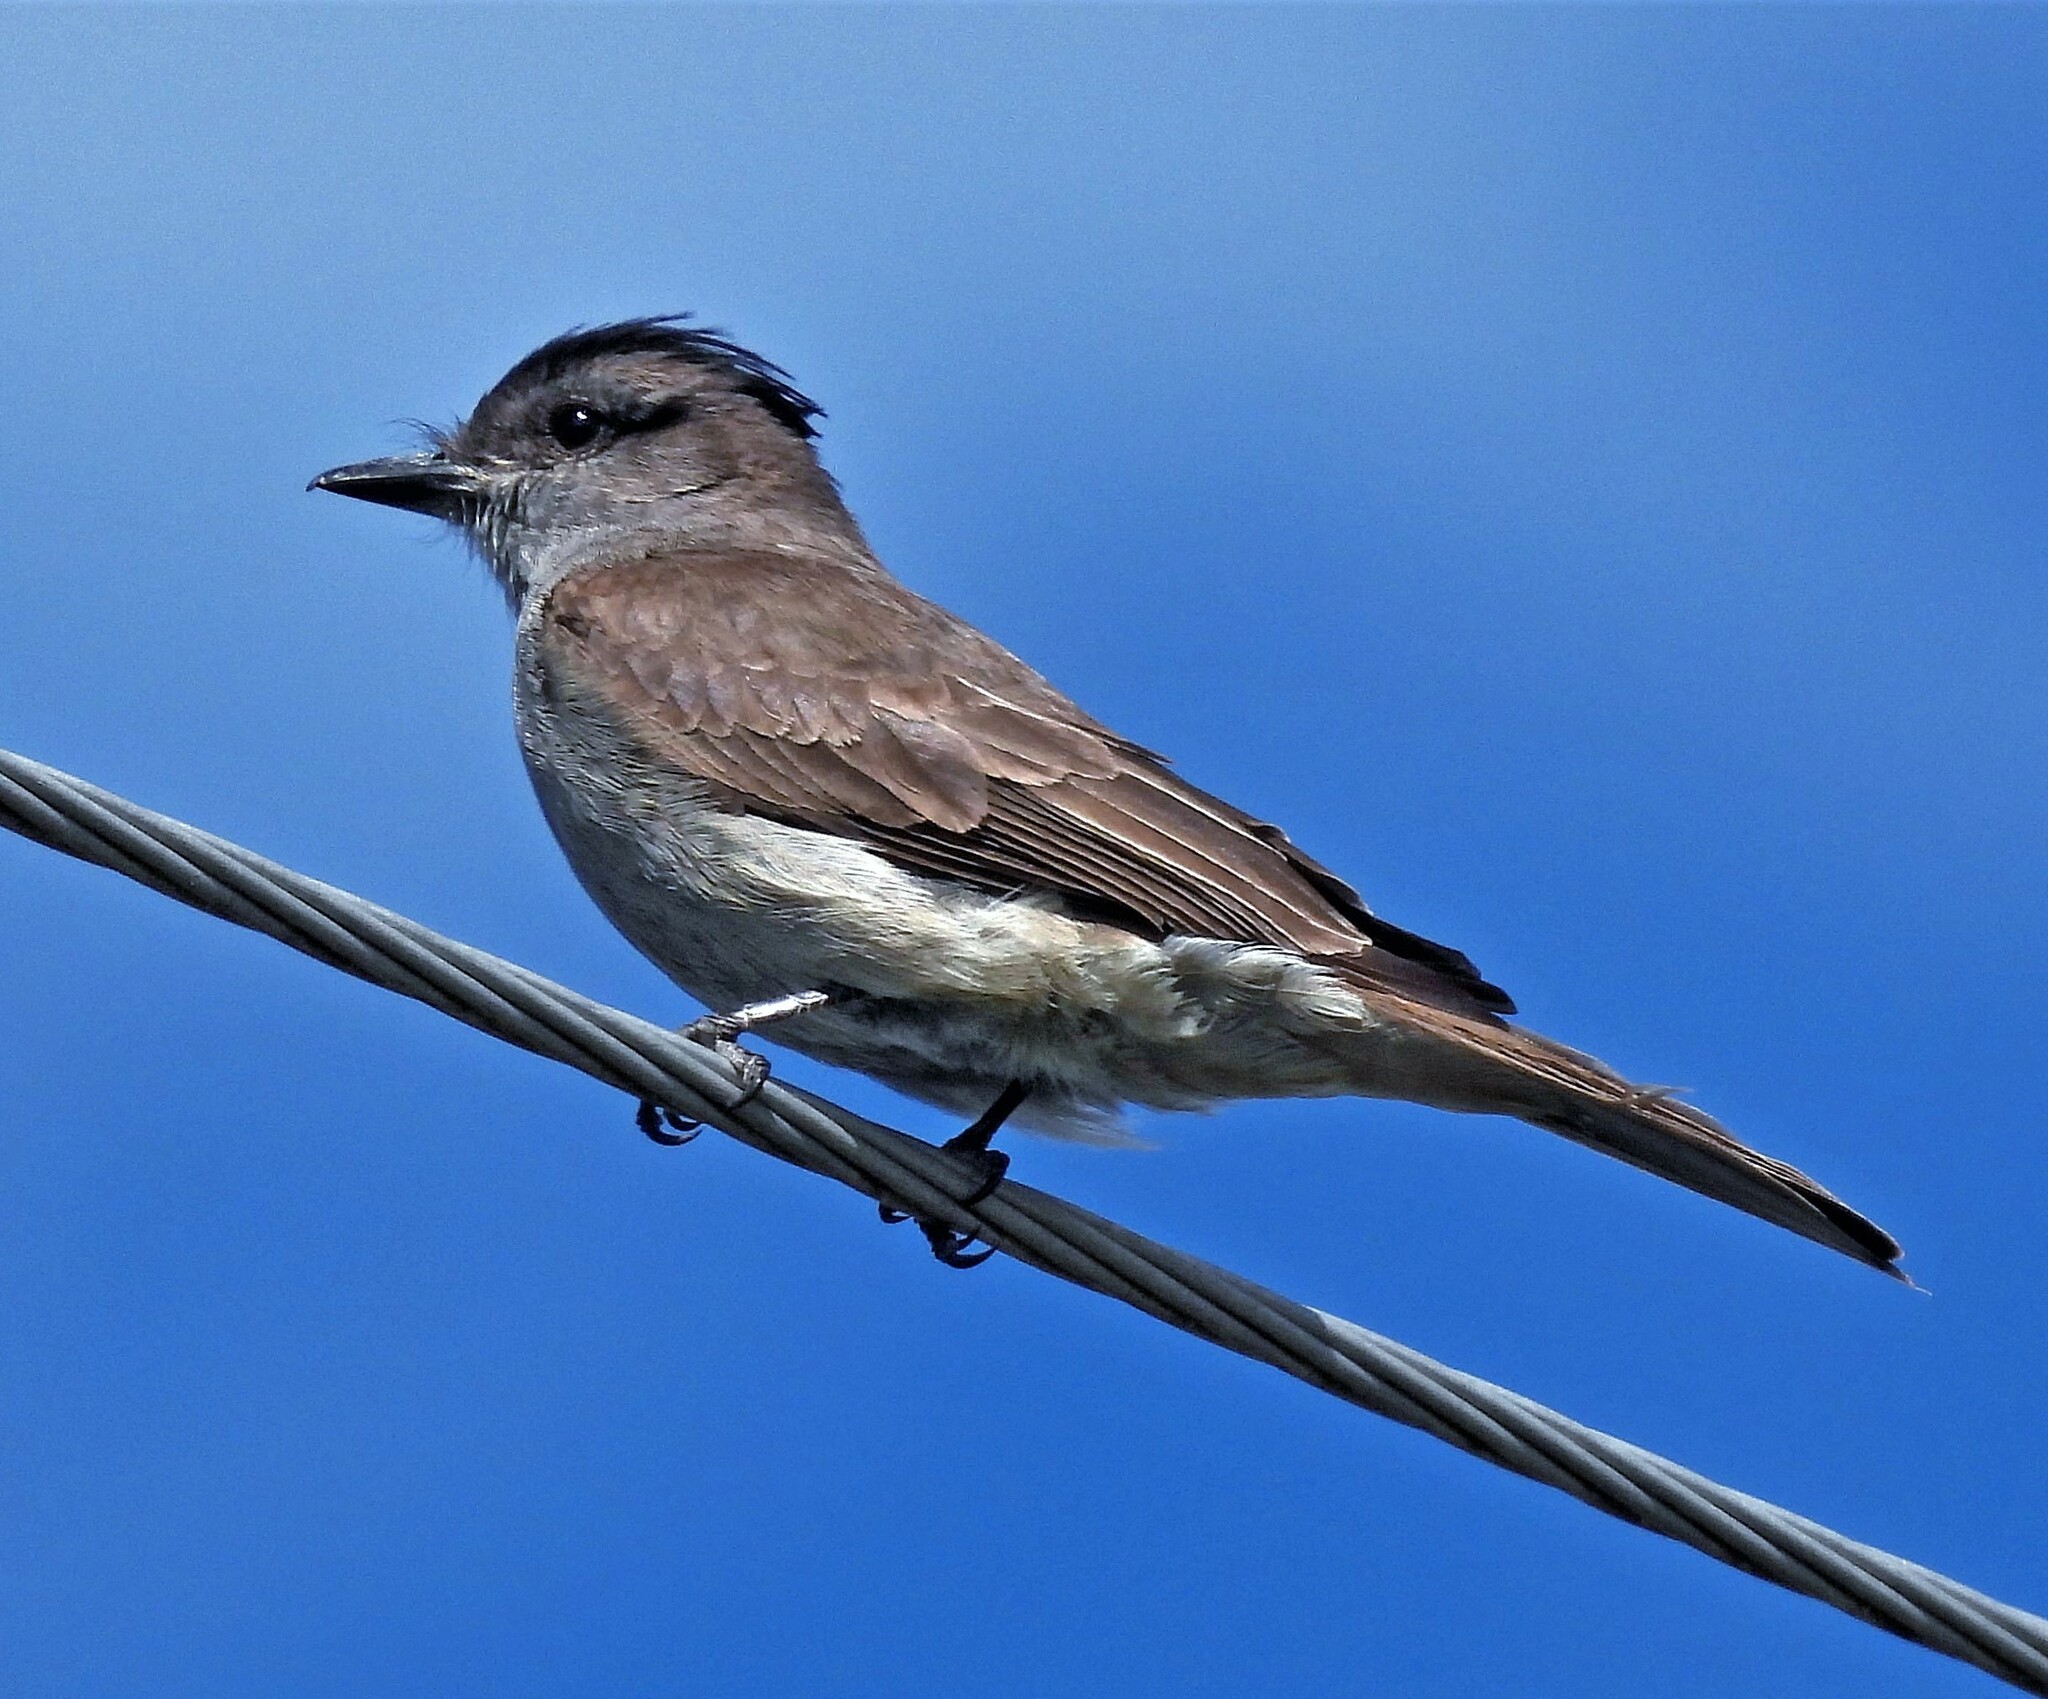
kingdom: Animalia
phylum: Chordata
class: Aves
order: Passeriformes
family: Tyrannidae
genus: Empidonomus
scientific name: Empidonomus aurantioatrocristatus
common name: Crowned slaty flycatcher
